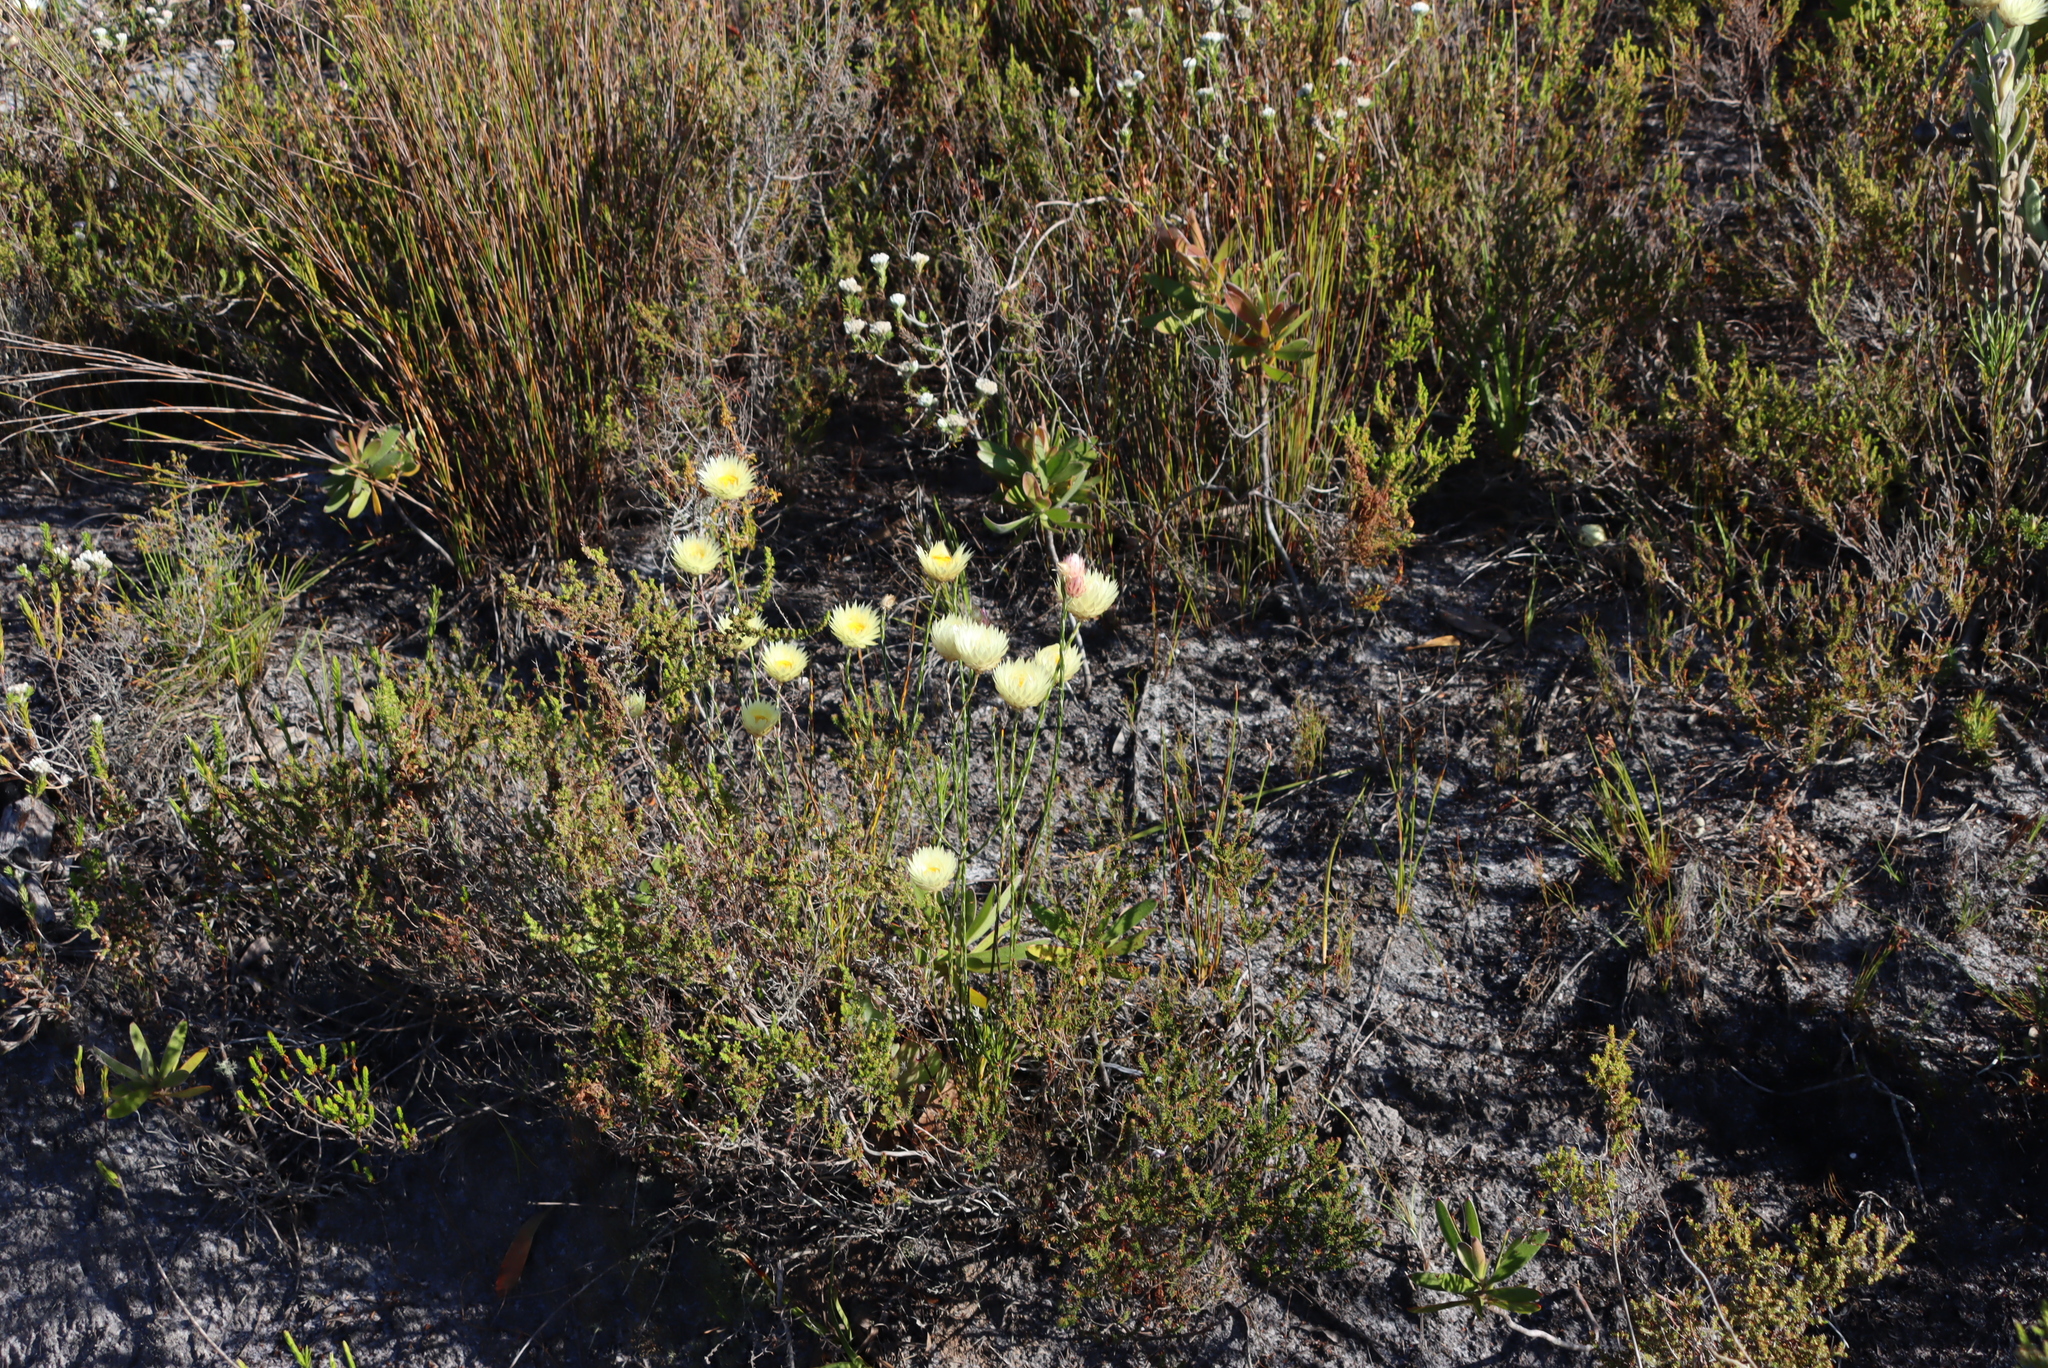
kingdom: Plantae
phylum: Tracheophyta
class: Magnoliopsida
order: Asterales
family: Asteraceae
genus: Edmondia
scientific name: Edmondia sesamoides
